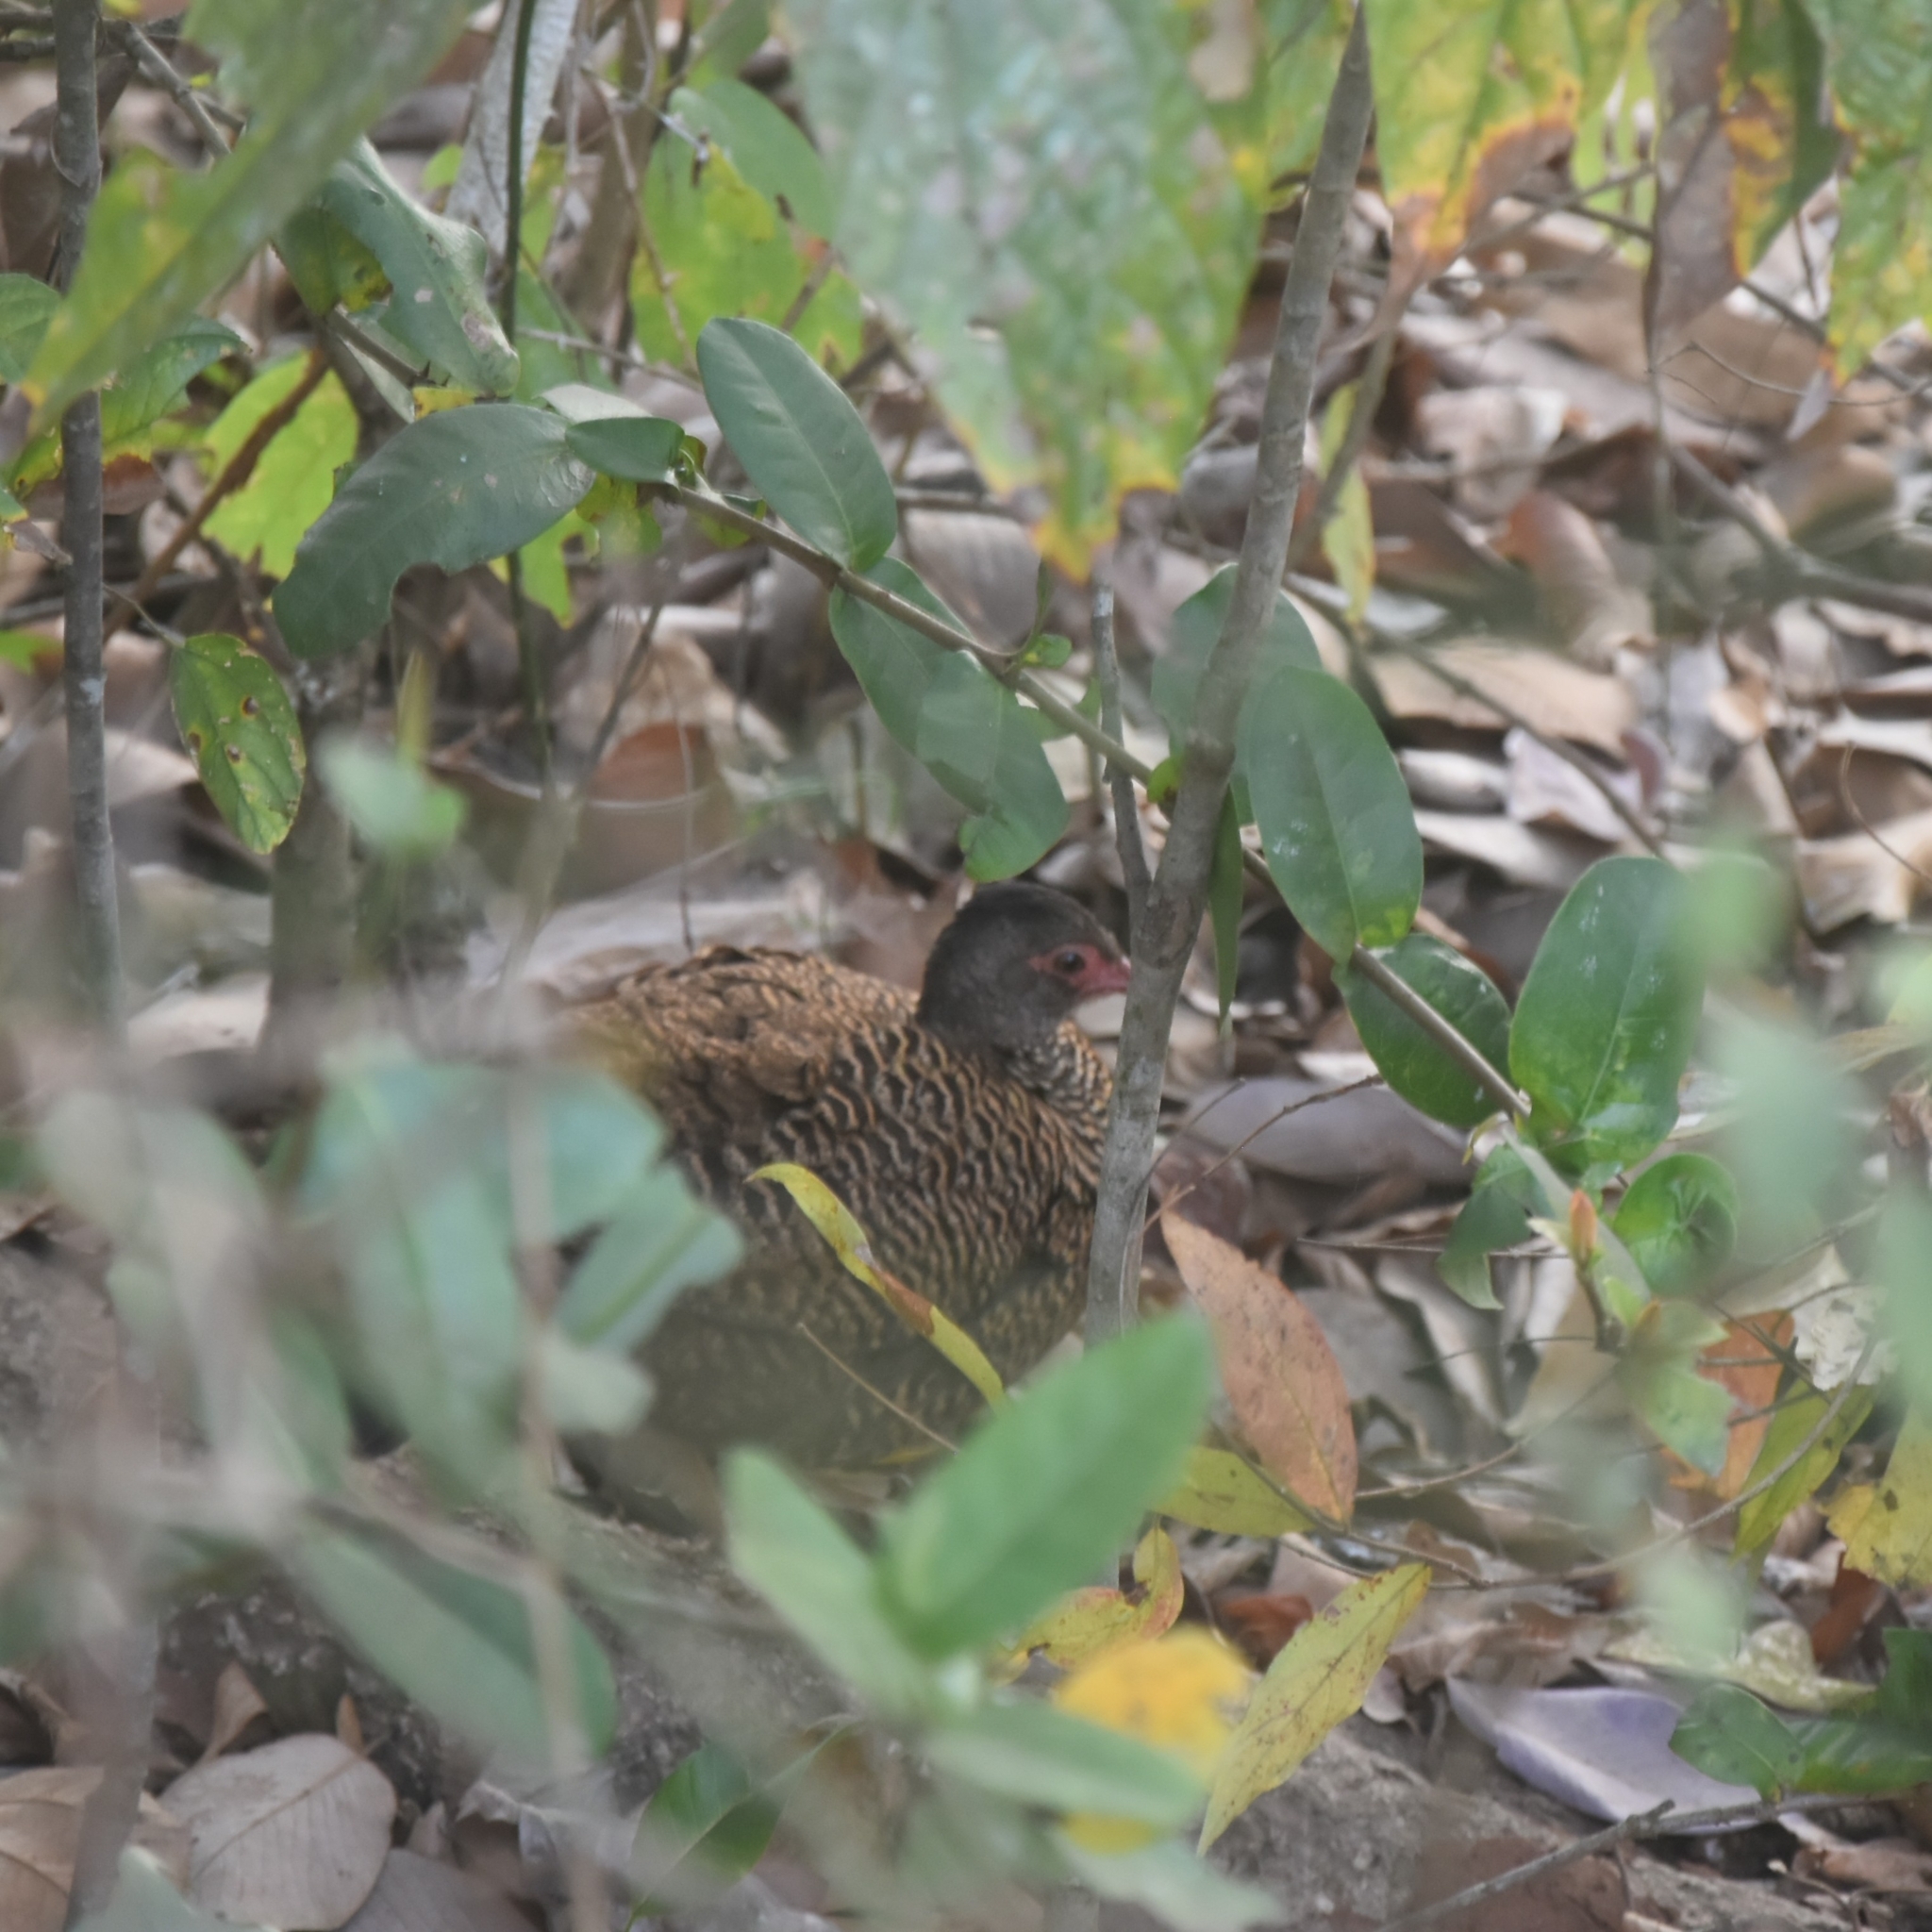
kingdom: Animalia
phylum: Chordata
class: Aves
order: Galliformes
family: Phasianidae
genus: Galloperdix
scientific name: Galloperdix spadicea
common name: Red spurfowl
